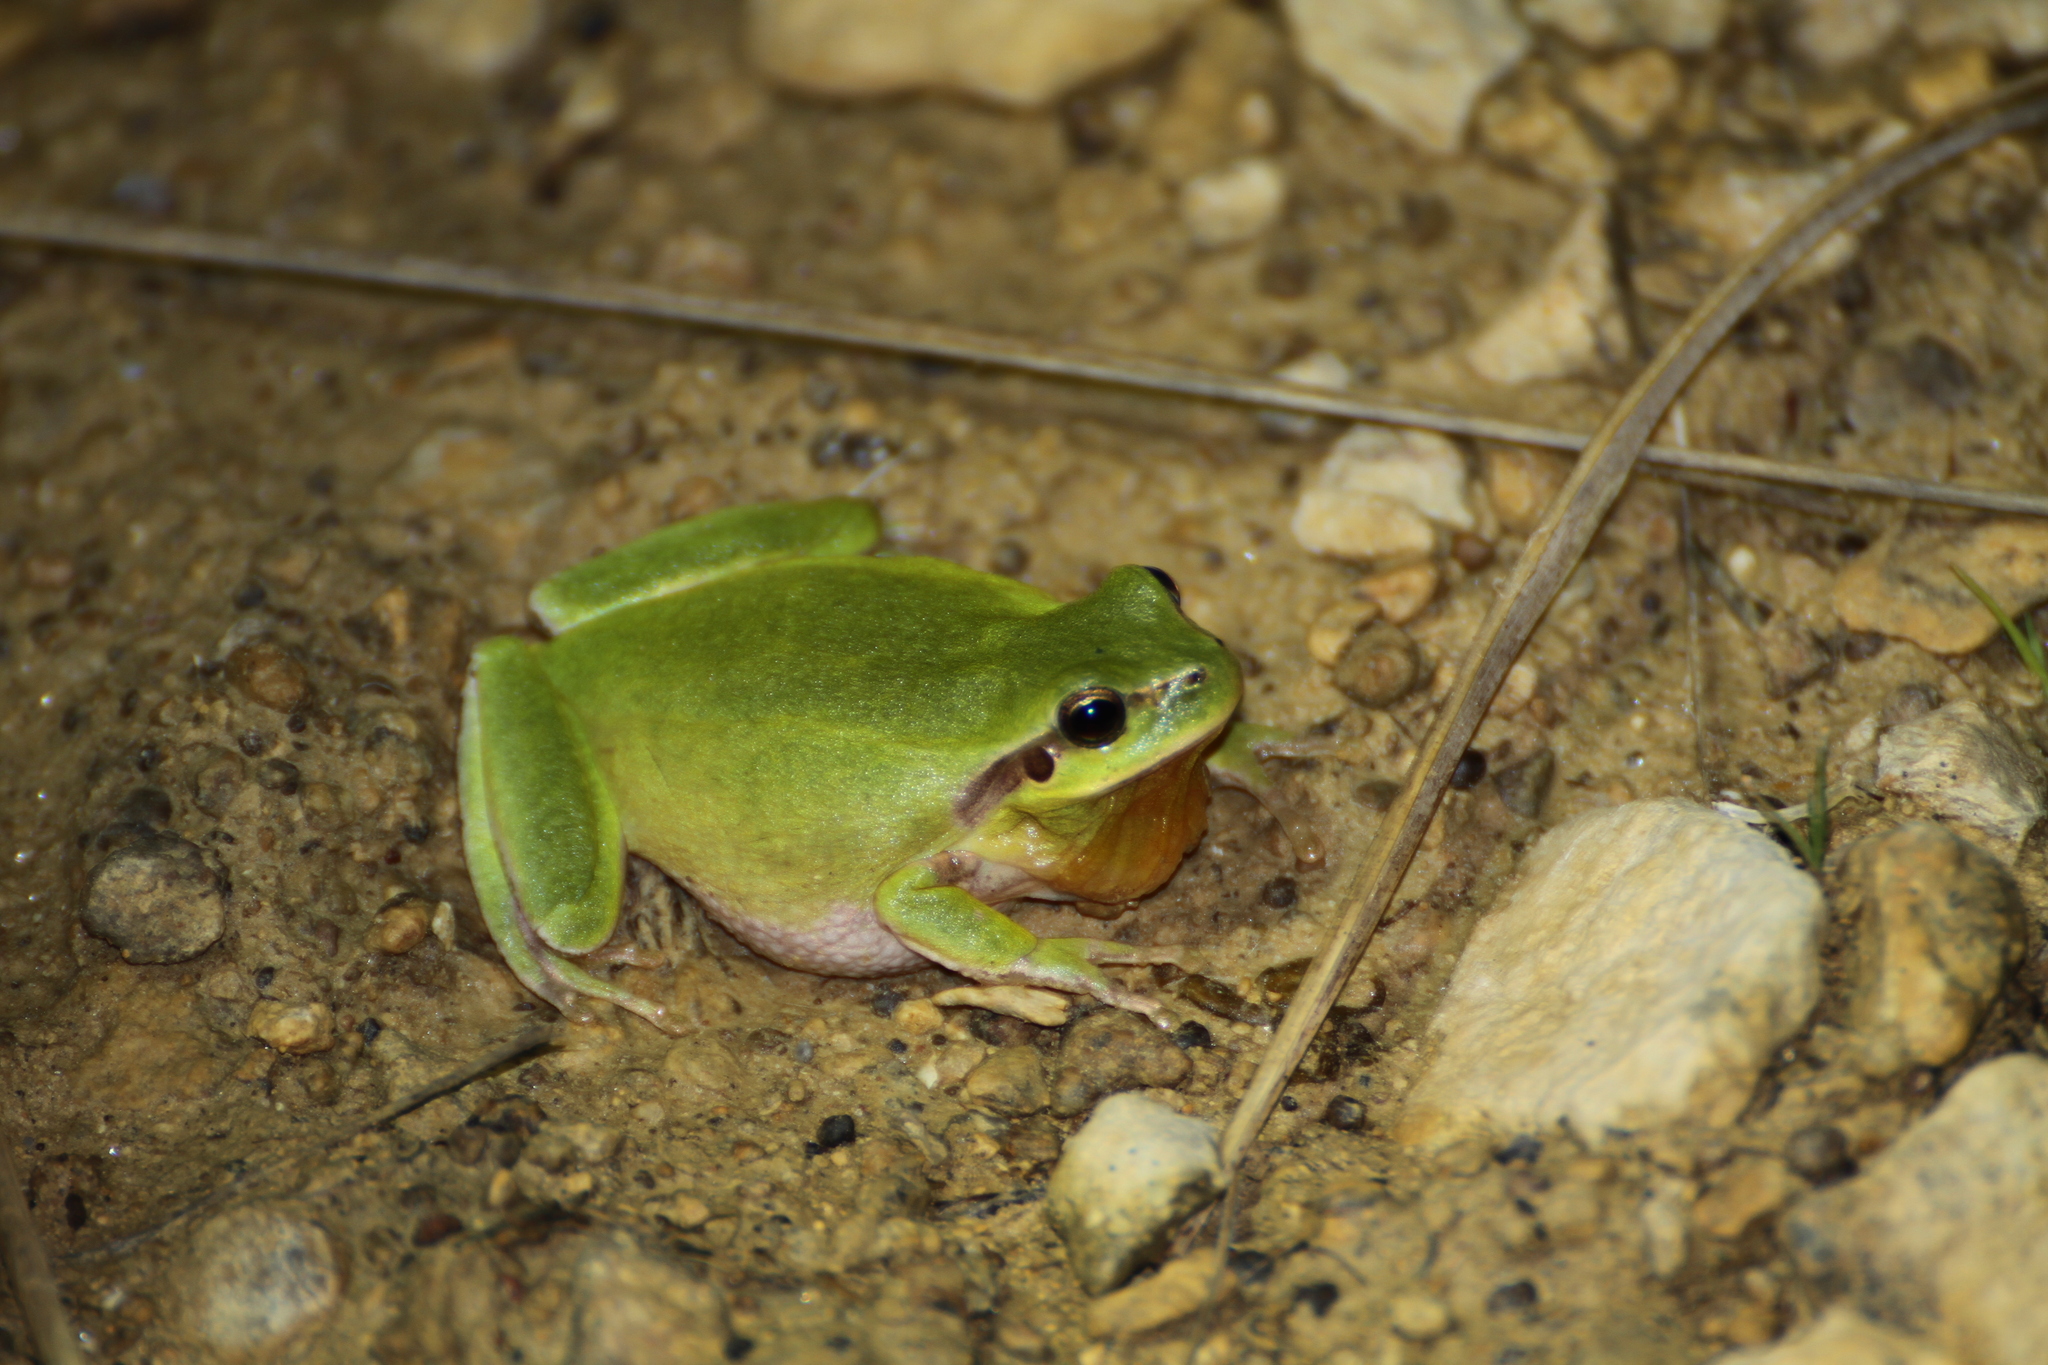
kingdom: Animalia
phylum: Chordata
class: Amphibia
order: Anura
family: Hylidae
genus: Hyla
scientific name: Hyla meridionalis
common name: Stripeless tree frog
